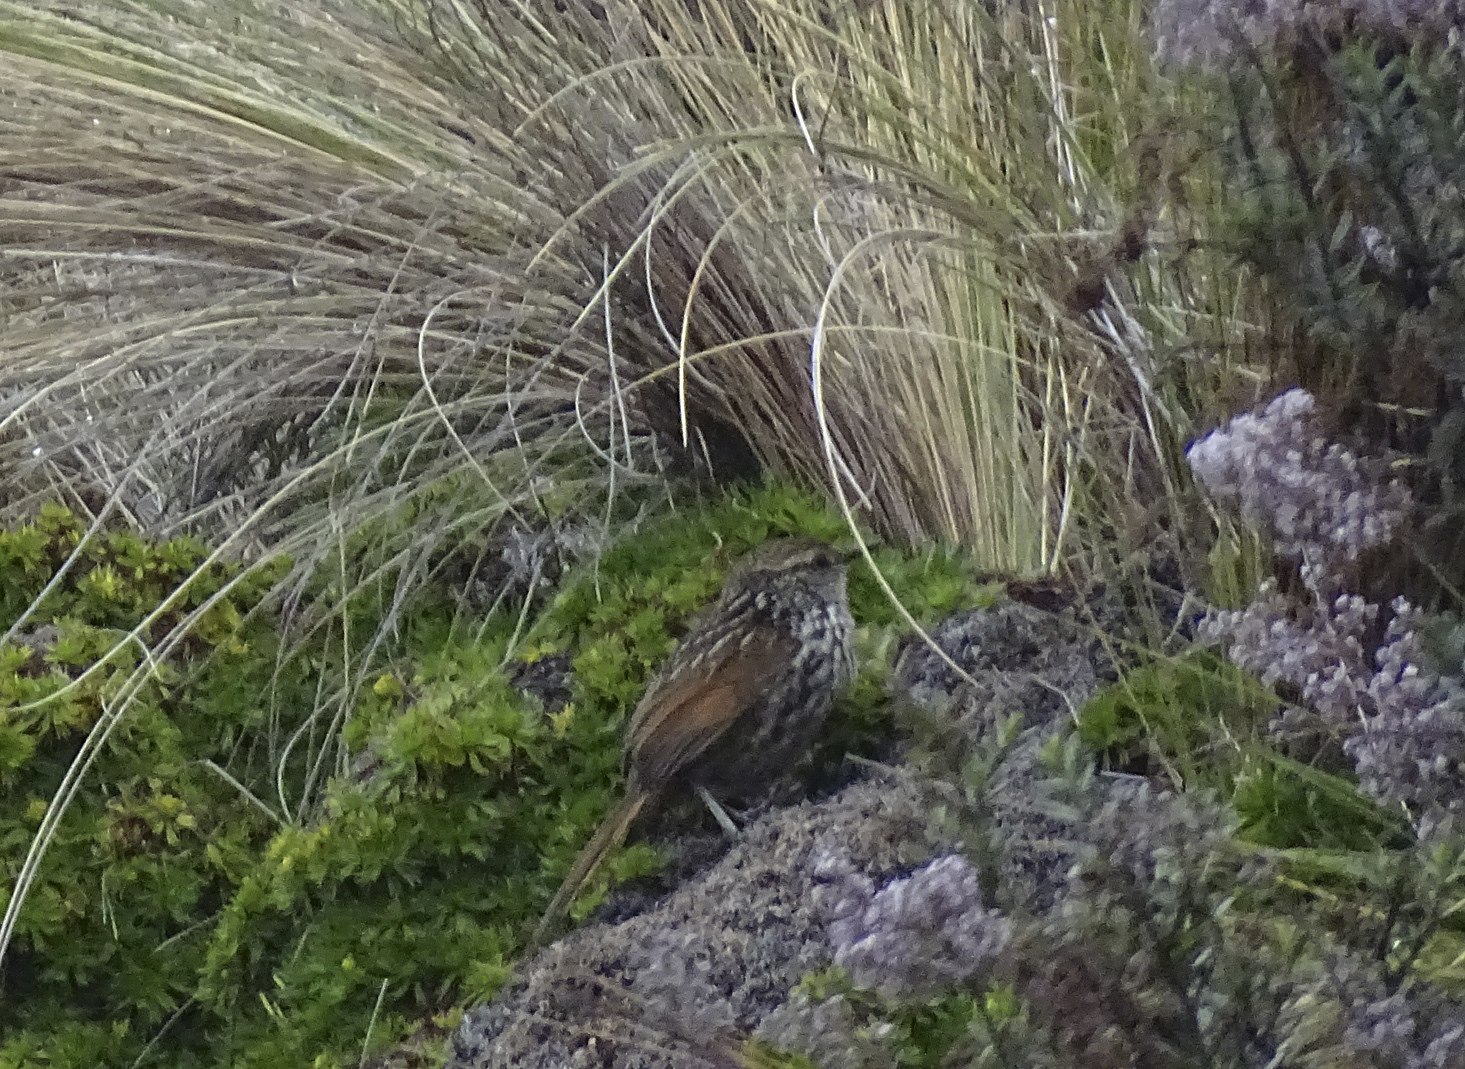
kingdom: Animalia
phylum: Chordata
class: Aves
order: Passeriformes
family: Furnariidae
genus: Asthenes
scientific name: Asthenes flammulata
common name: Many-striped canastero
